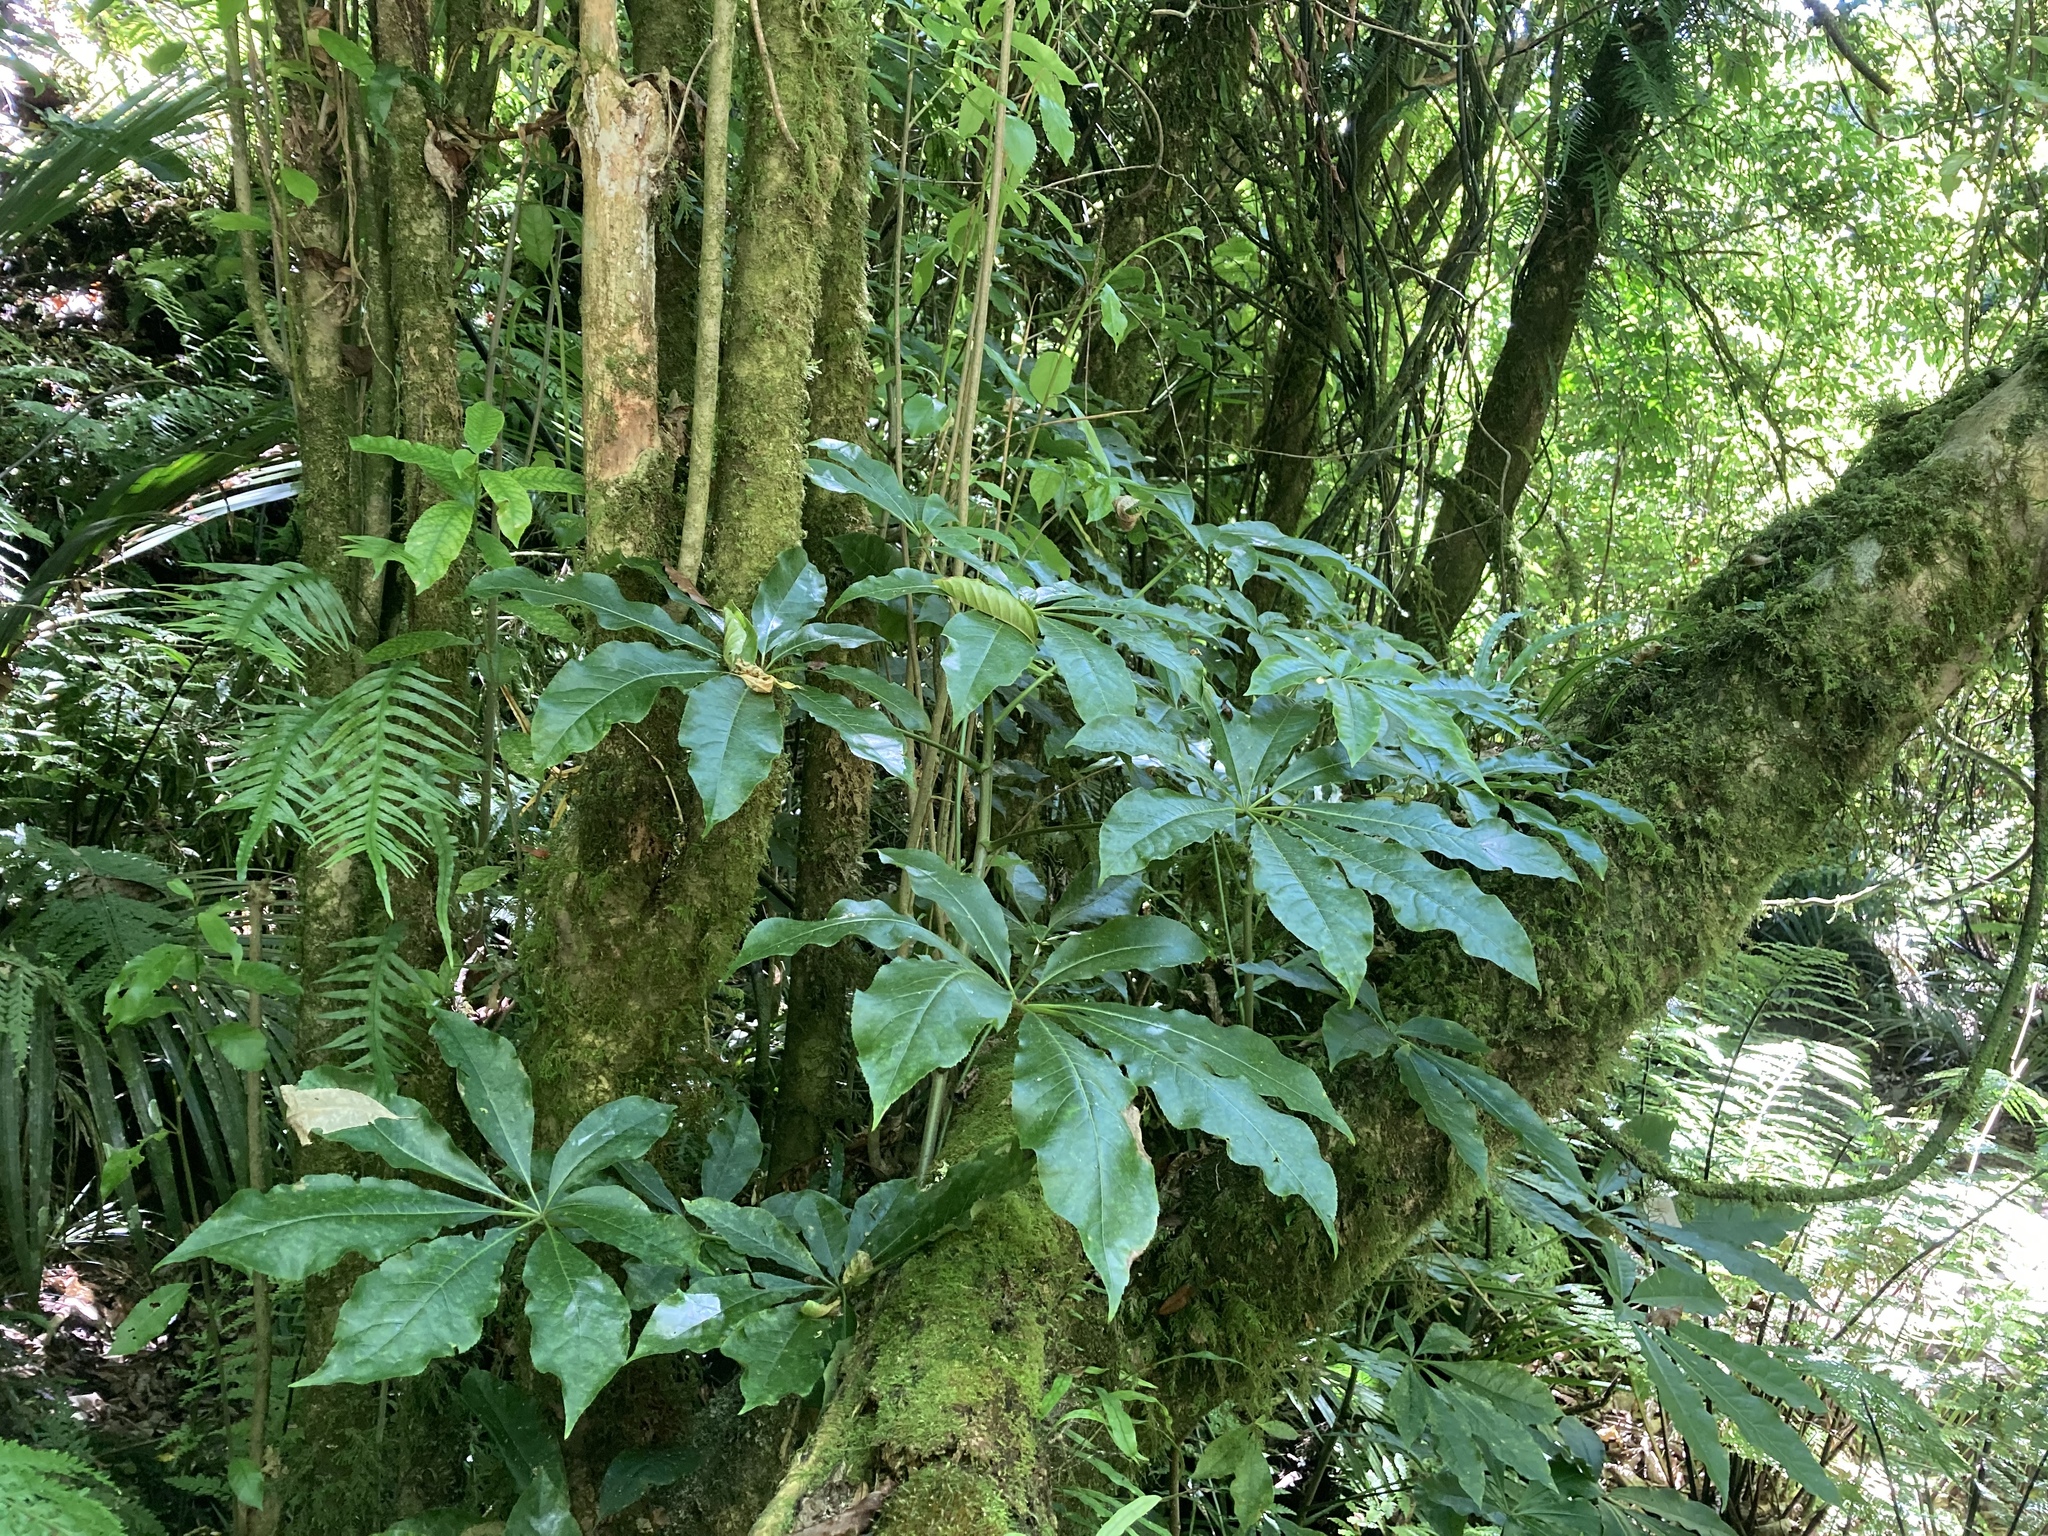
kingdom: Plantae
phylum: Tracheophyta
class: Magnoliopsida
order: Apiales
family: Araliaceae
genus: Schefflera
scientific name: Schefflera digitata
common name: Pate
